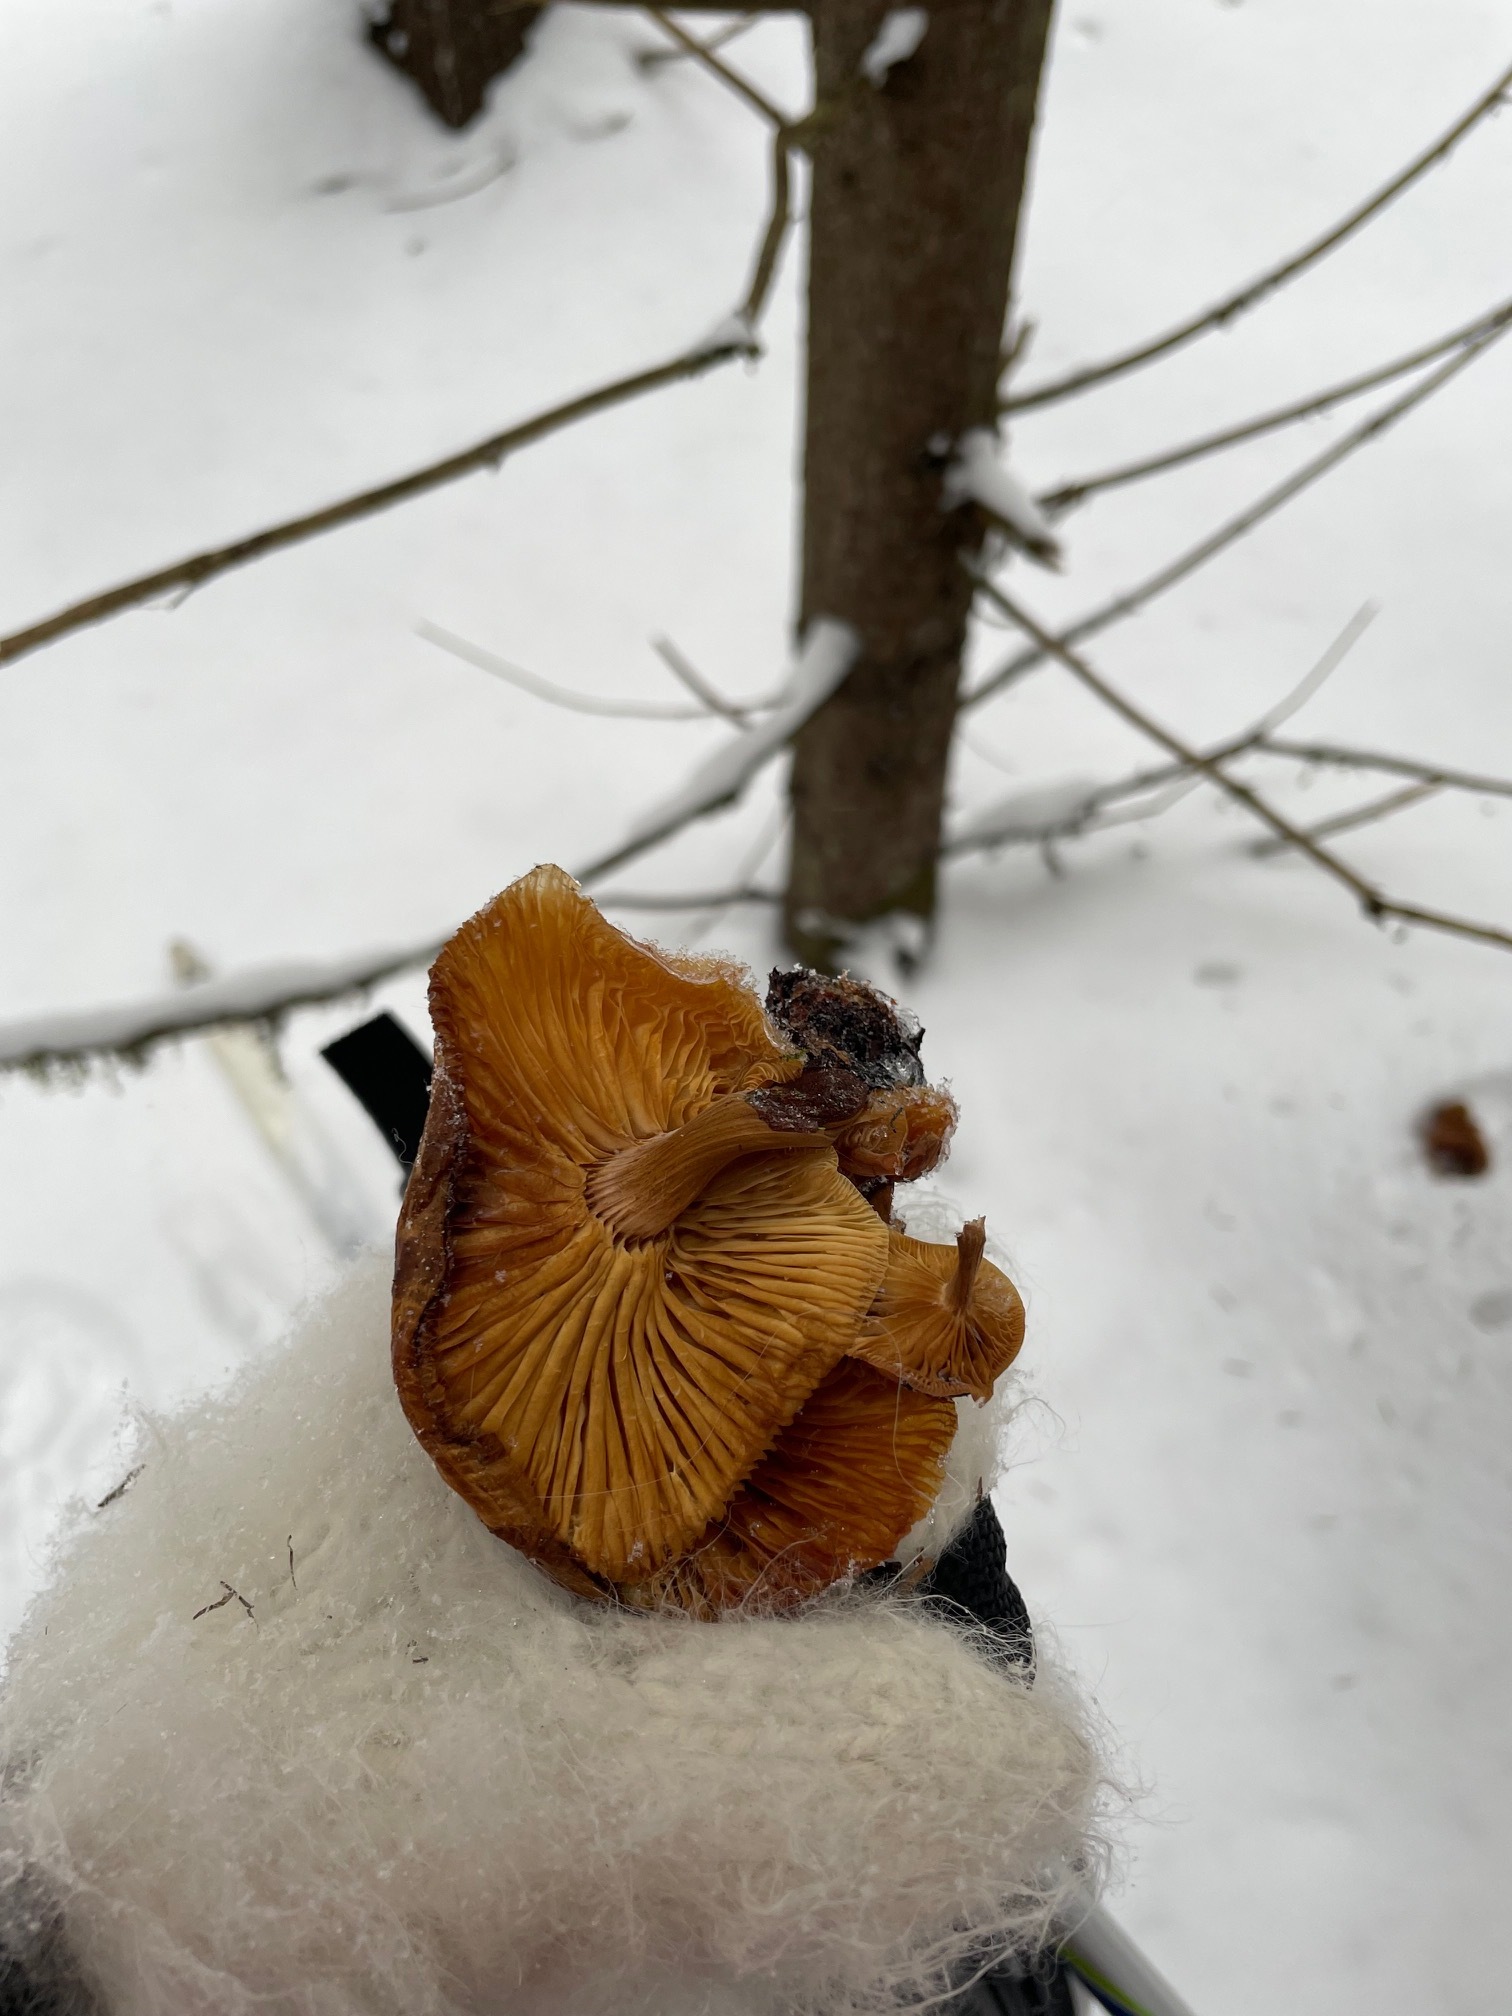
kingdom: Fungi
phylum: Basidiomycota
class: Agaricomycetes
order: Agaricales
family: Physalacriaceae
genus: Flammulina
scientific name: Flammulina
